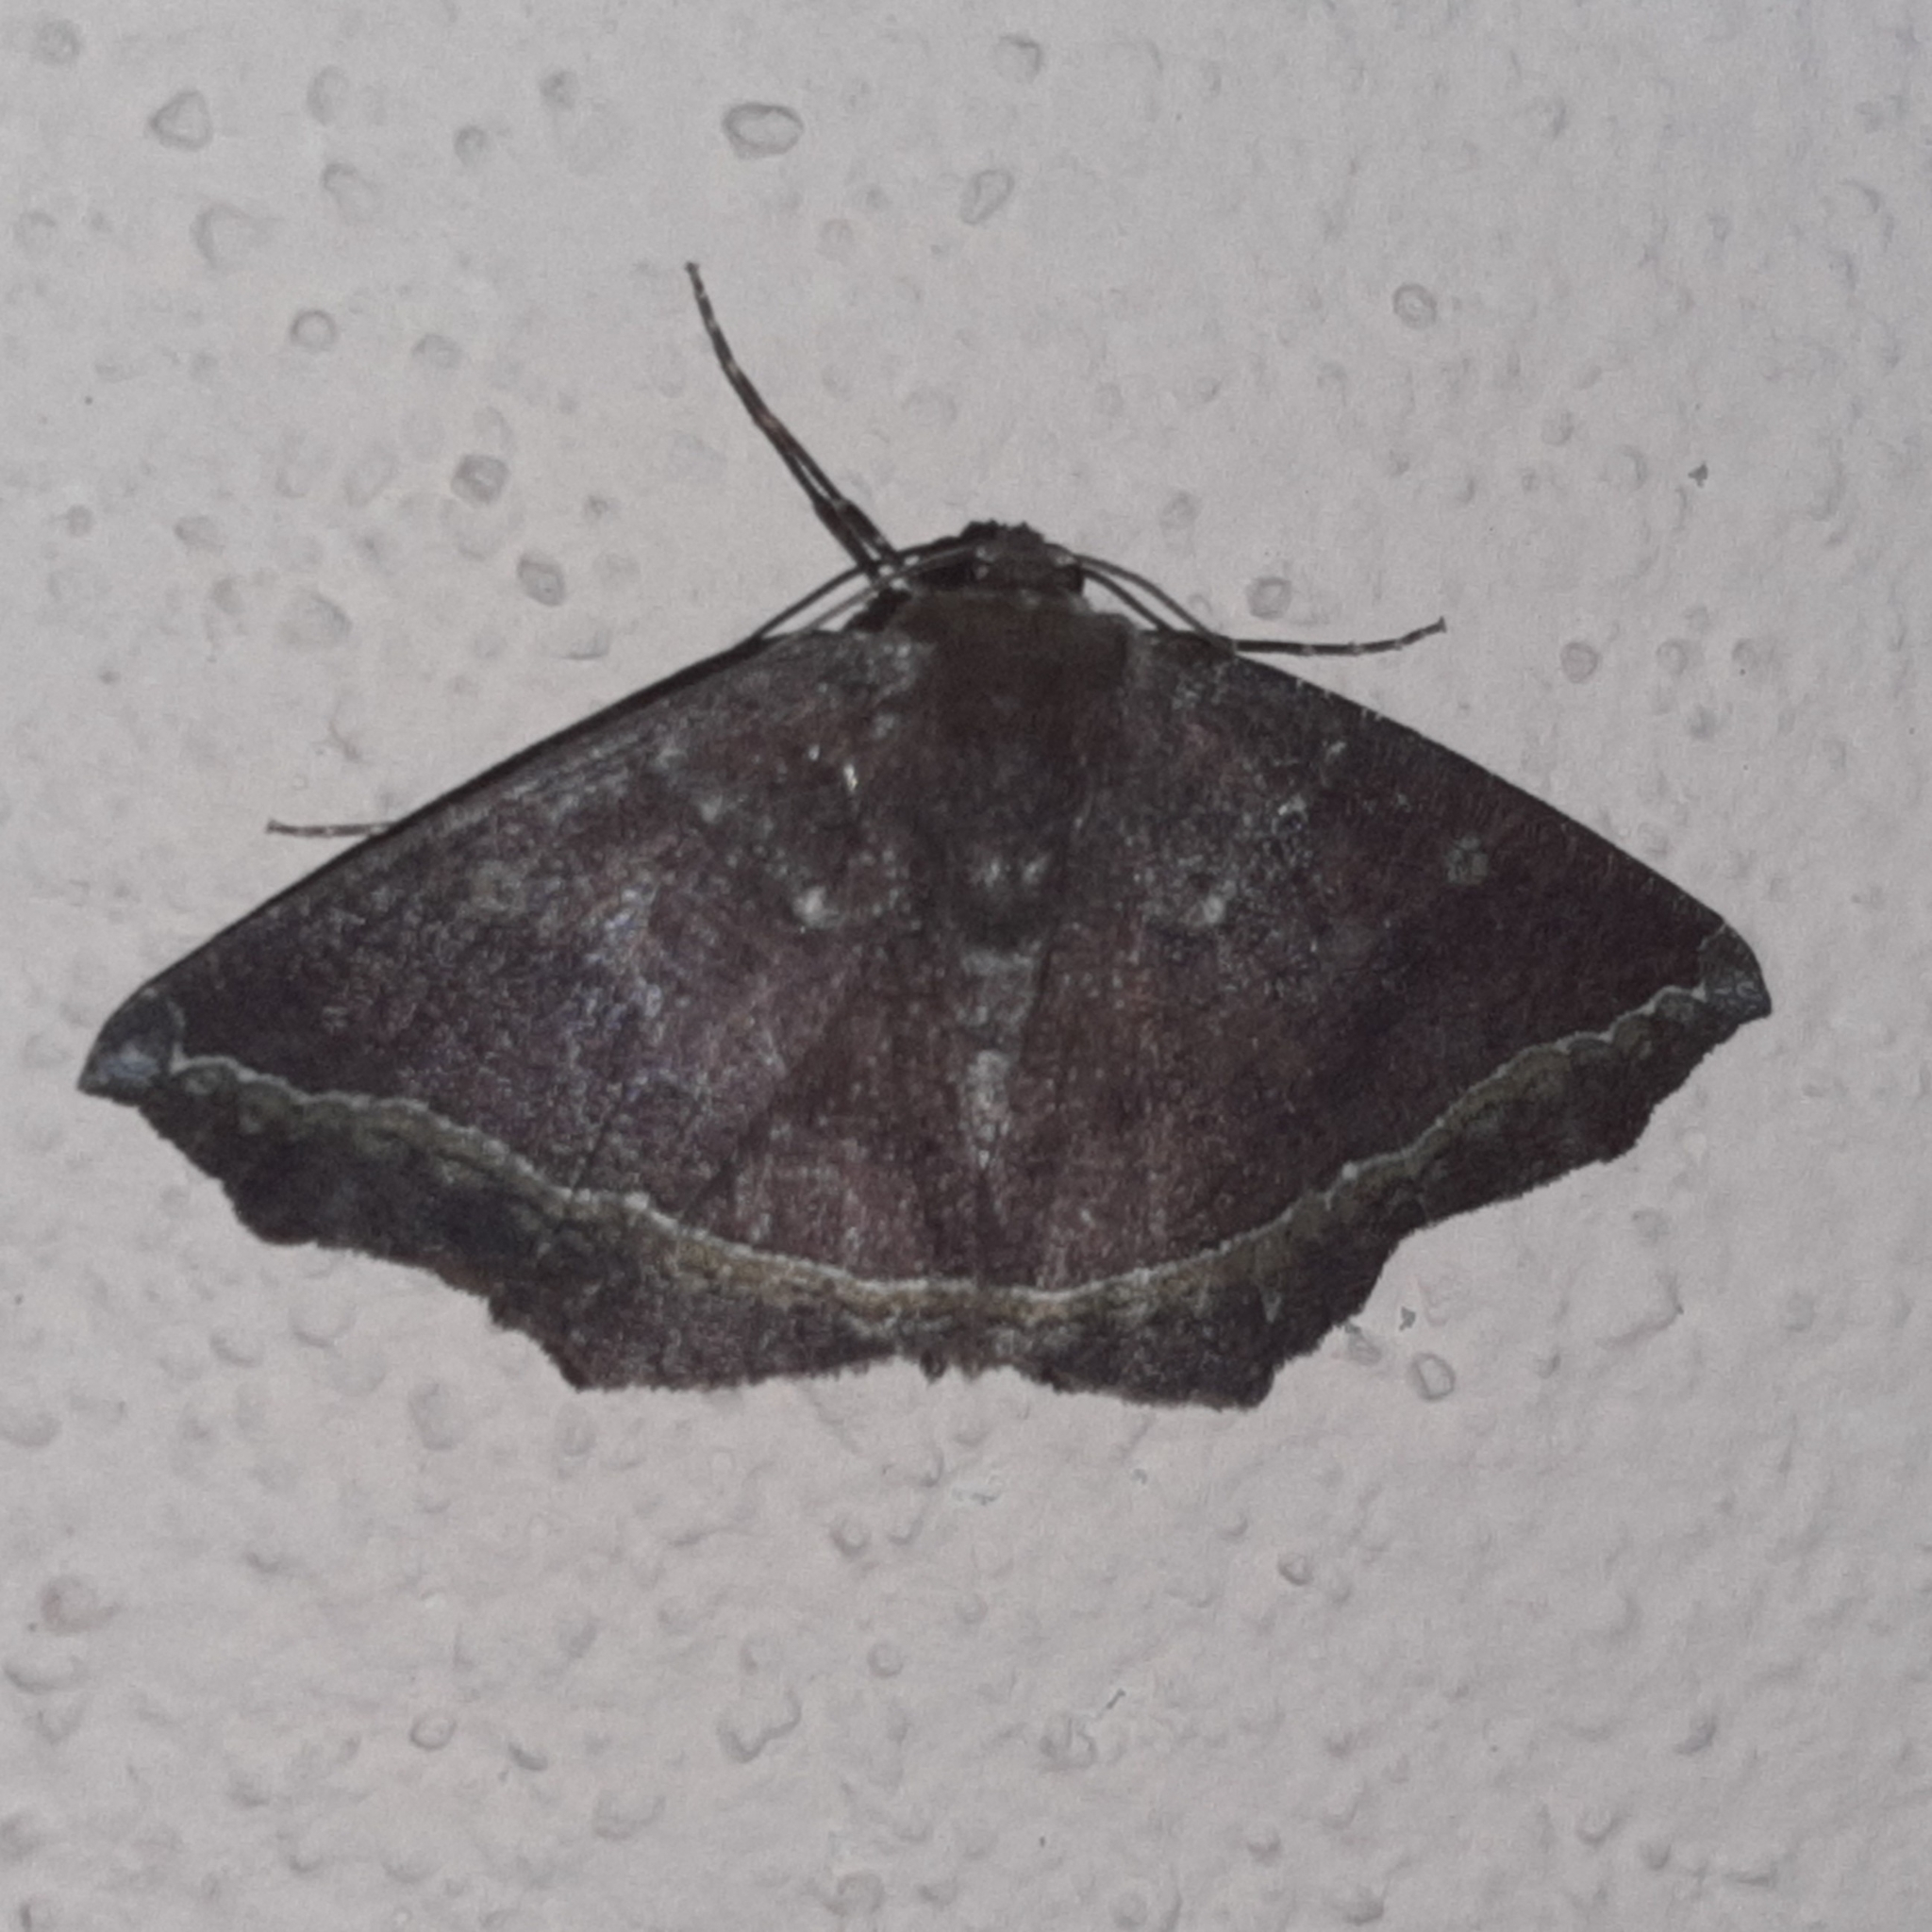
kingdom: Animalia
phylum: Arthropoda
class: Insecta
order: Lepidoptera
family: Geometridae
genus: Synnomos
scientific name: Synnomos firmamentaria
